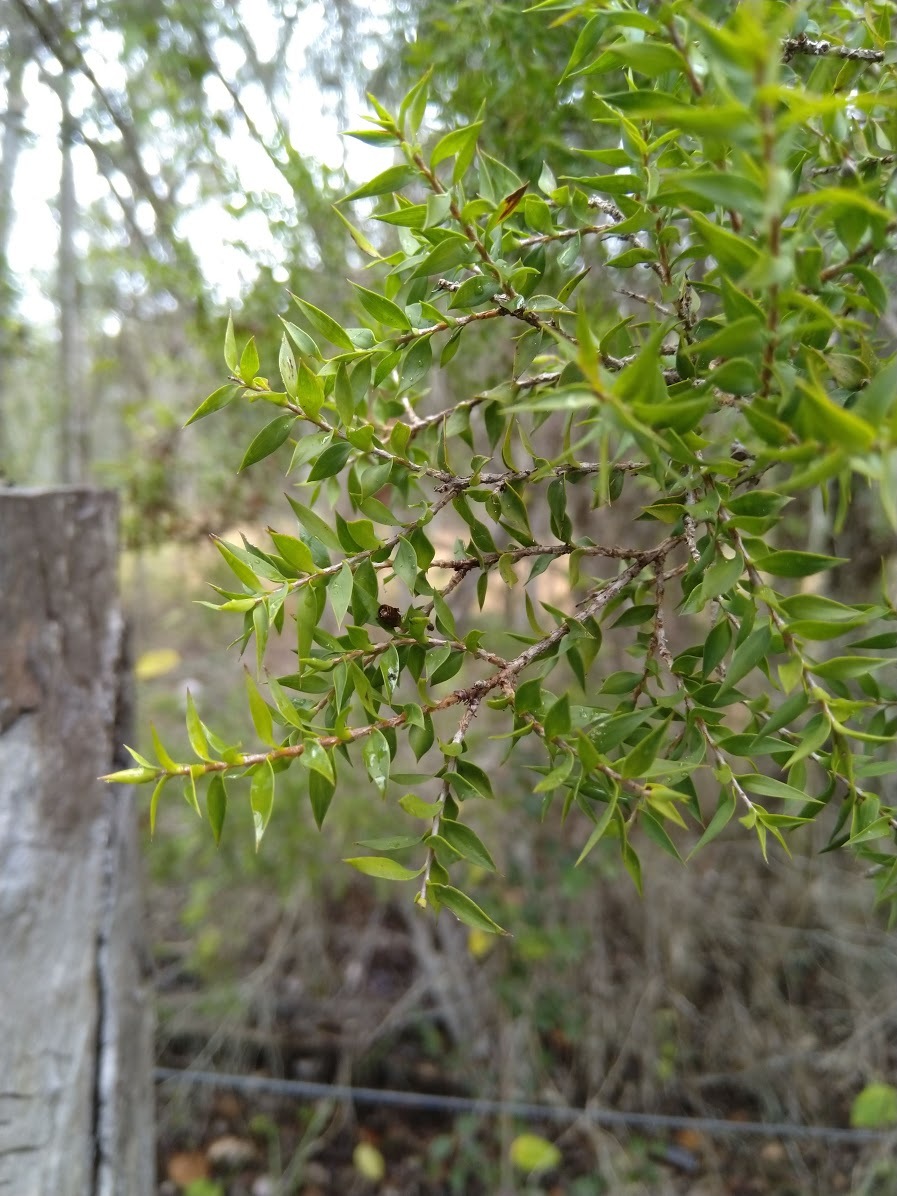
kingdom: Plantae
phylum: Tracheophyta
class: Magnoliopsida
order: Myrtales
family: Myrtaceae
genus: Melaleuca
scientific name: Melaleuca styphelioides
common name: Prickly paperbark
